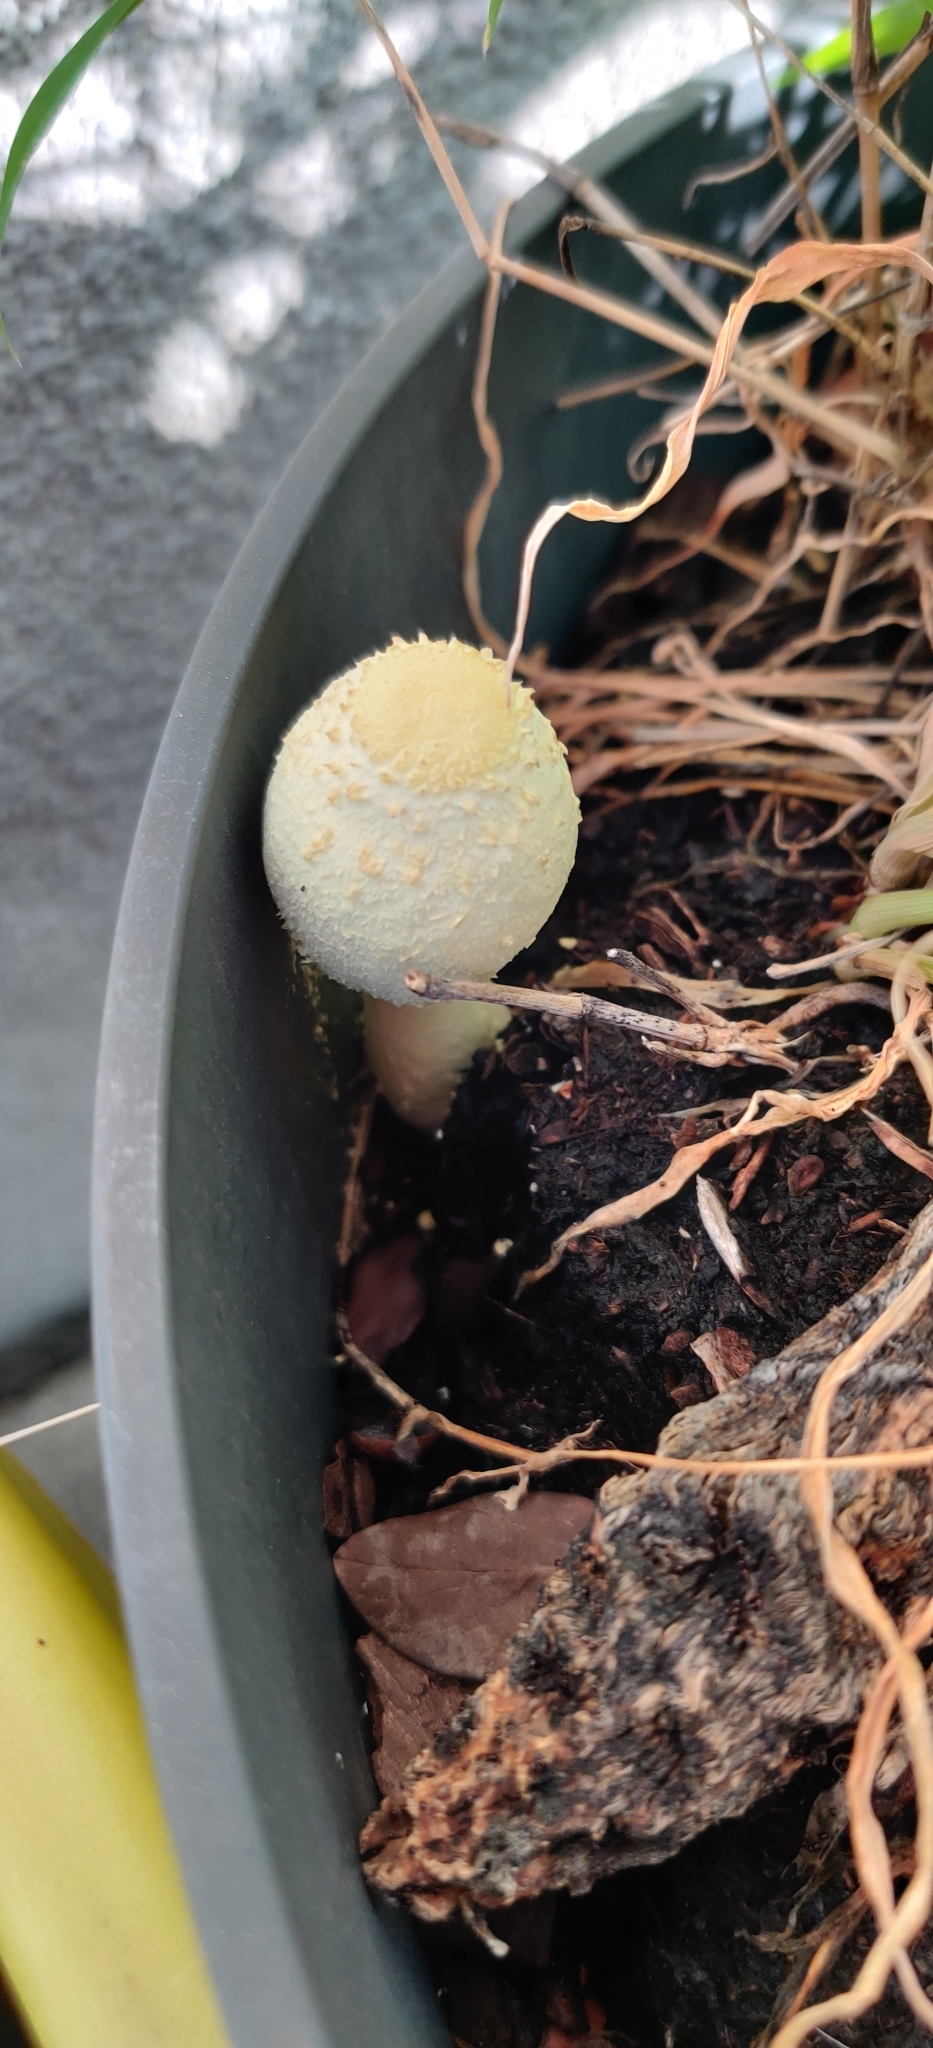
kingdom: Fungi
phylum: Basidiomycota
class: Agaricomycetes
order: Agaricales
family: Agaricaceae
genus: Leucocoprinus
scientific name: Leucocoprinus birnbaumii
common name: Plantpot dapperling
